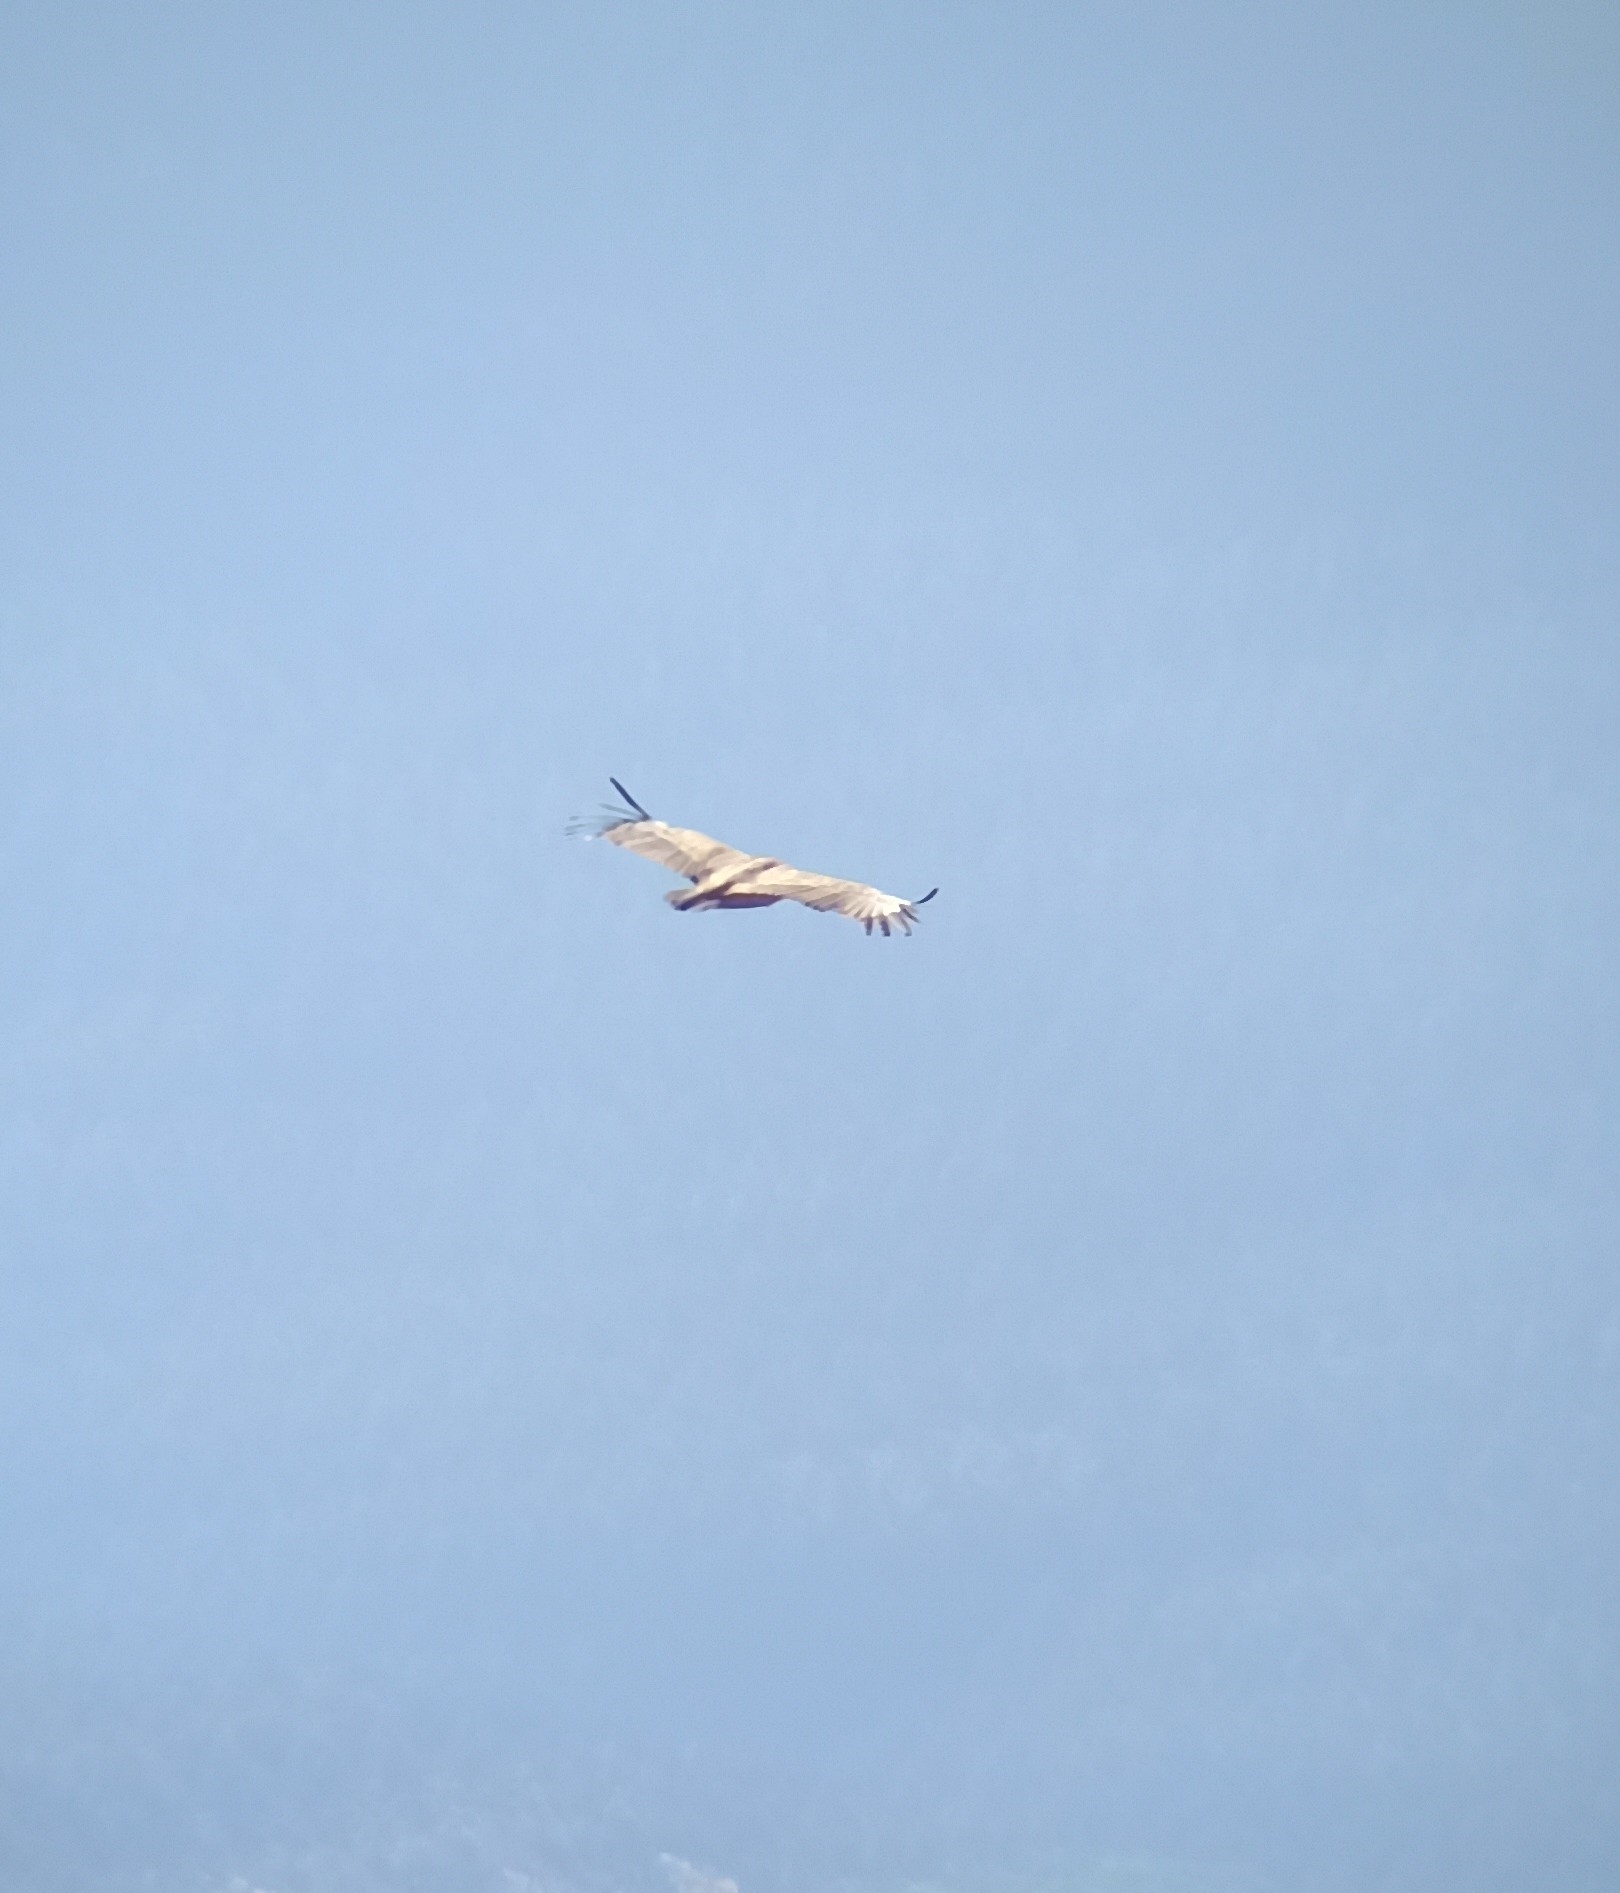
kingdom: Animalia
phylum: Chordata
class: Aves
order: Accipitriformes
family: Accipitridae
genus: Gyps
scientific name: Gyps fulvus
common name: Griffon vulture
